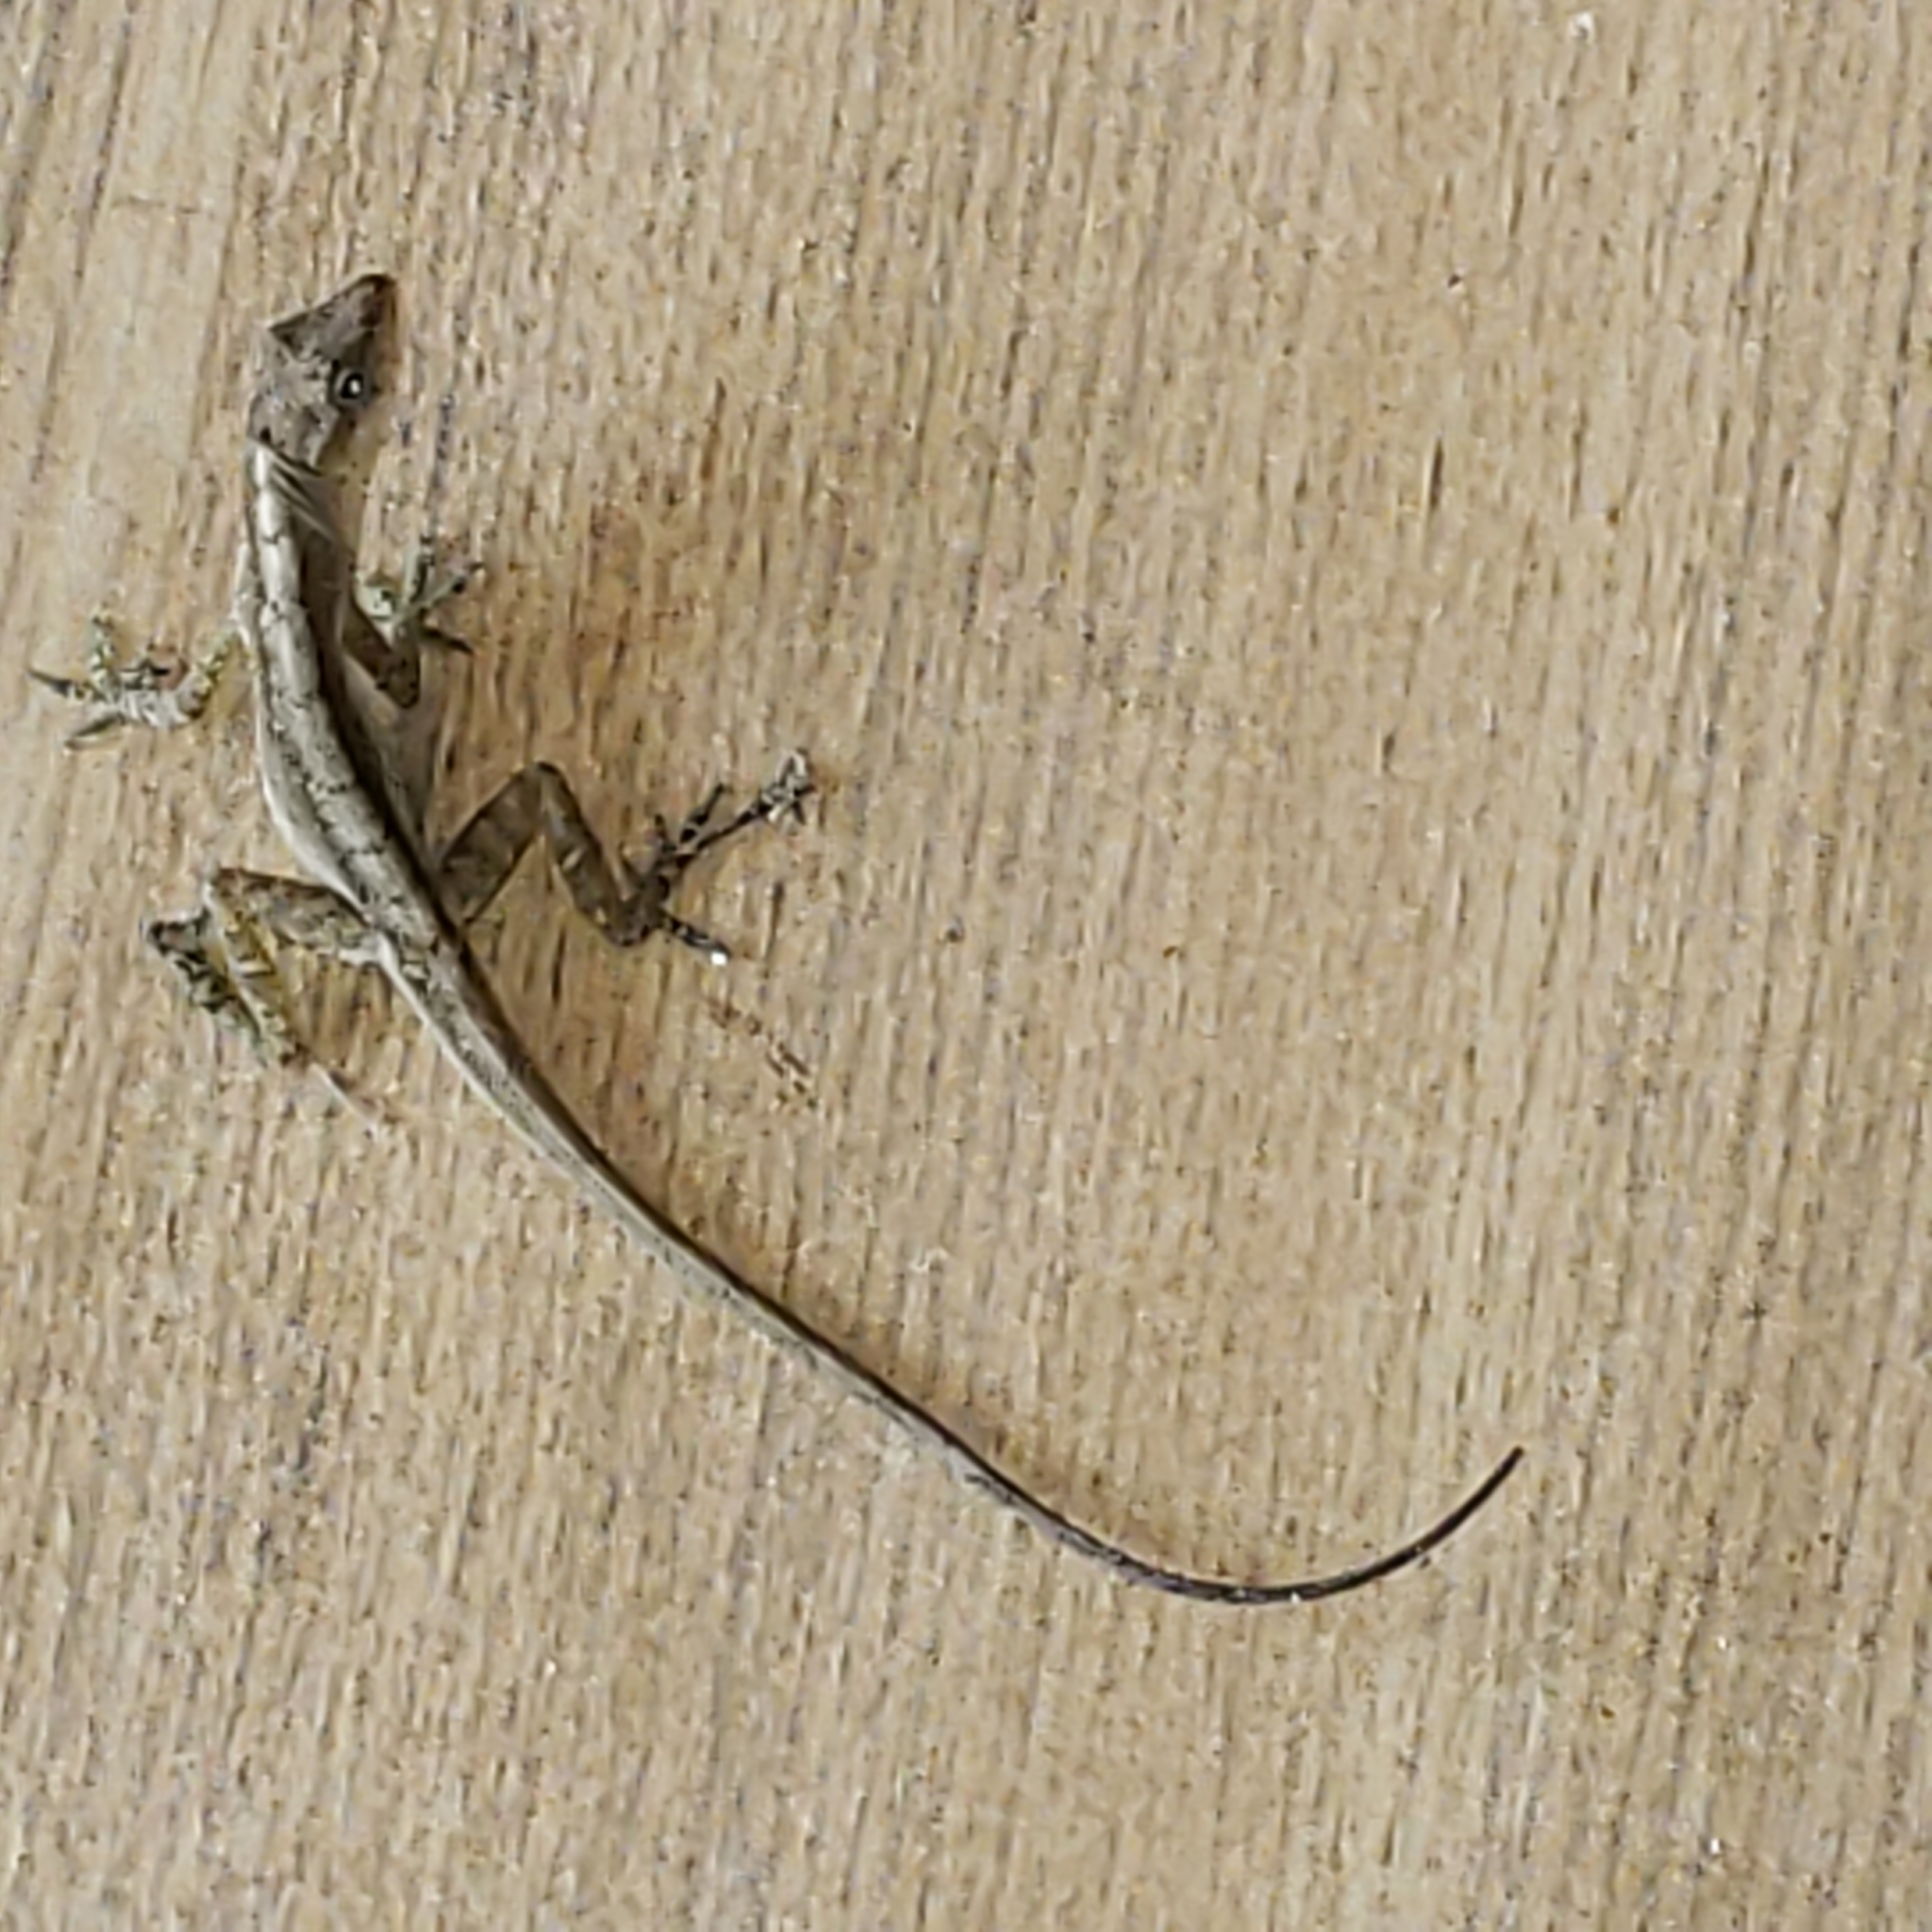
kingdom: Animalia
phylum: Chordata
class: Squamata
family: Dactyloidae
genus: Anolis
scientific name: Anolis humilis
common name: Humble anole
